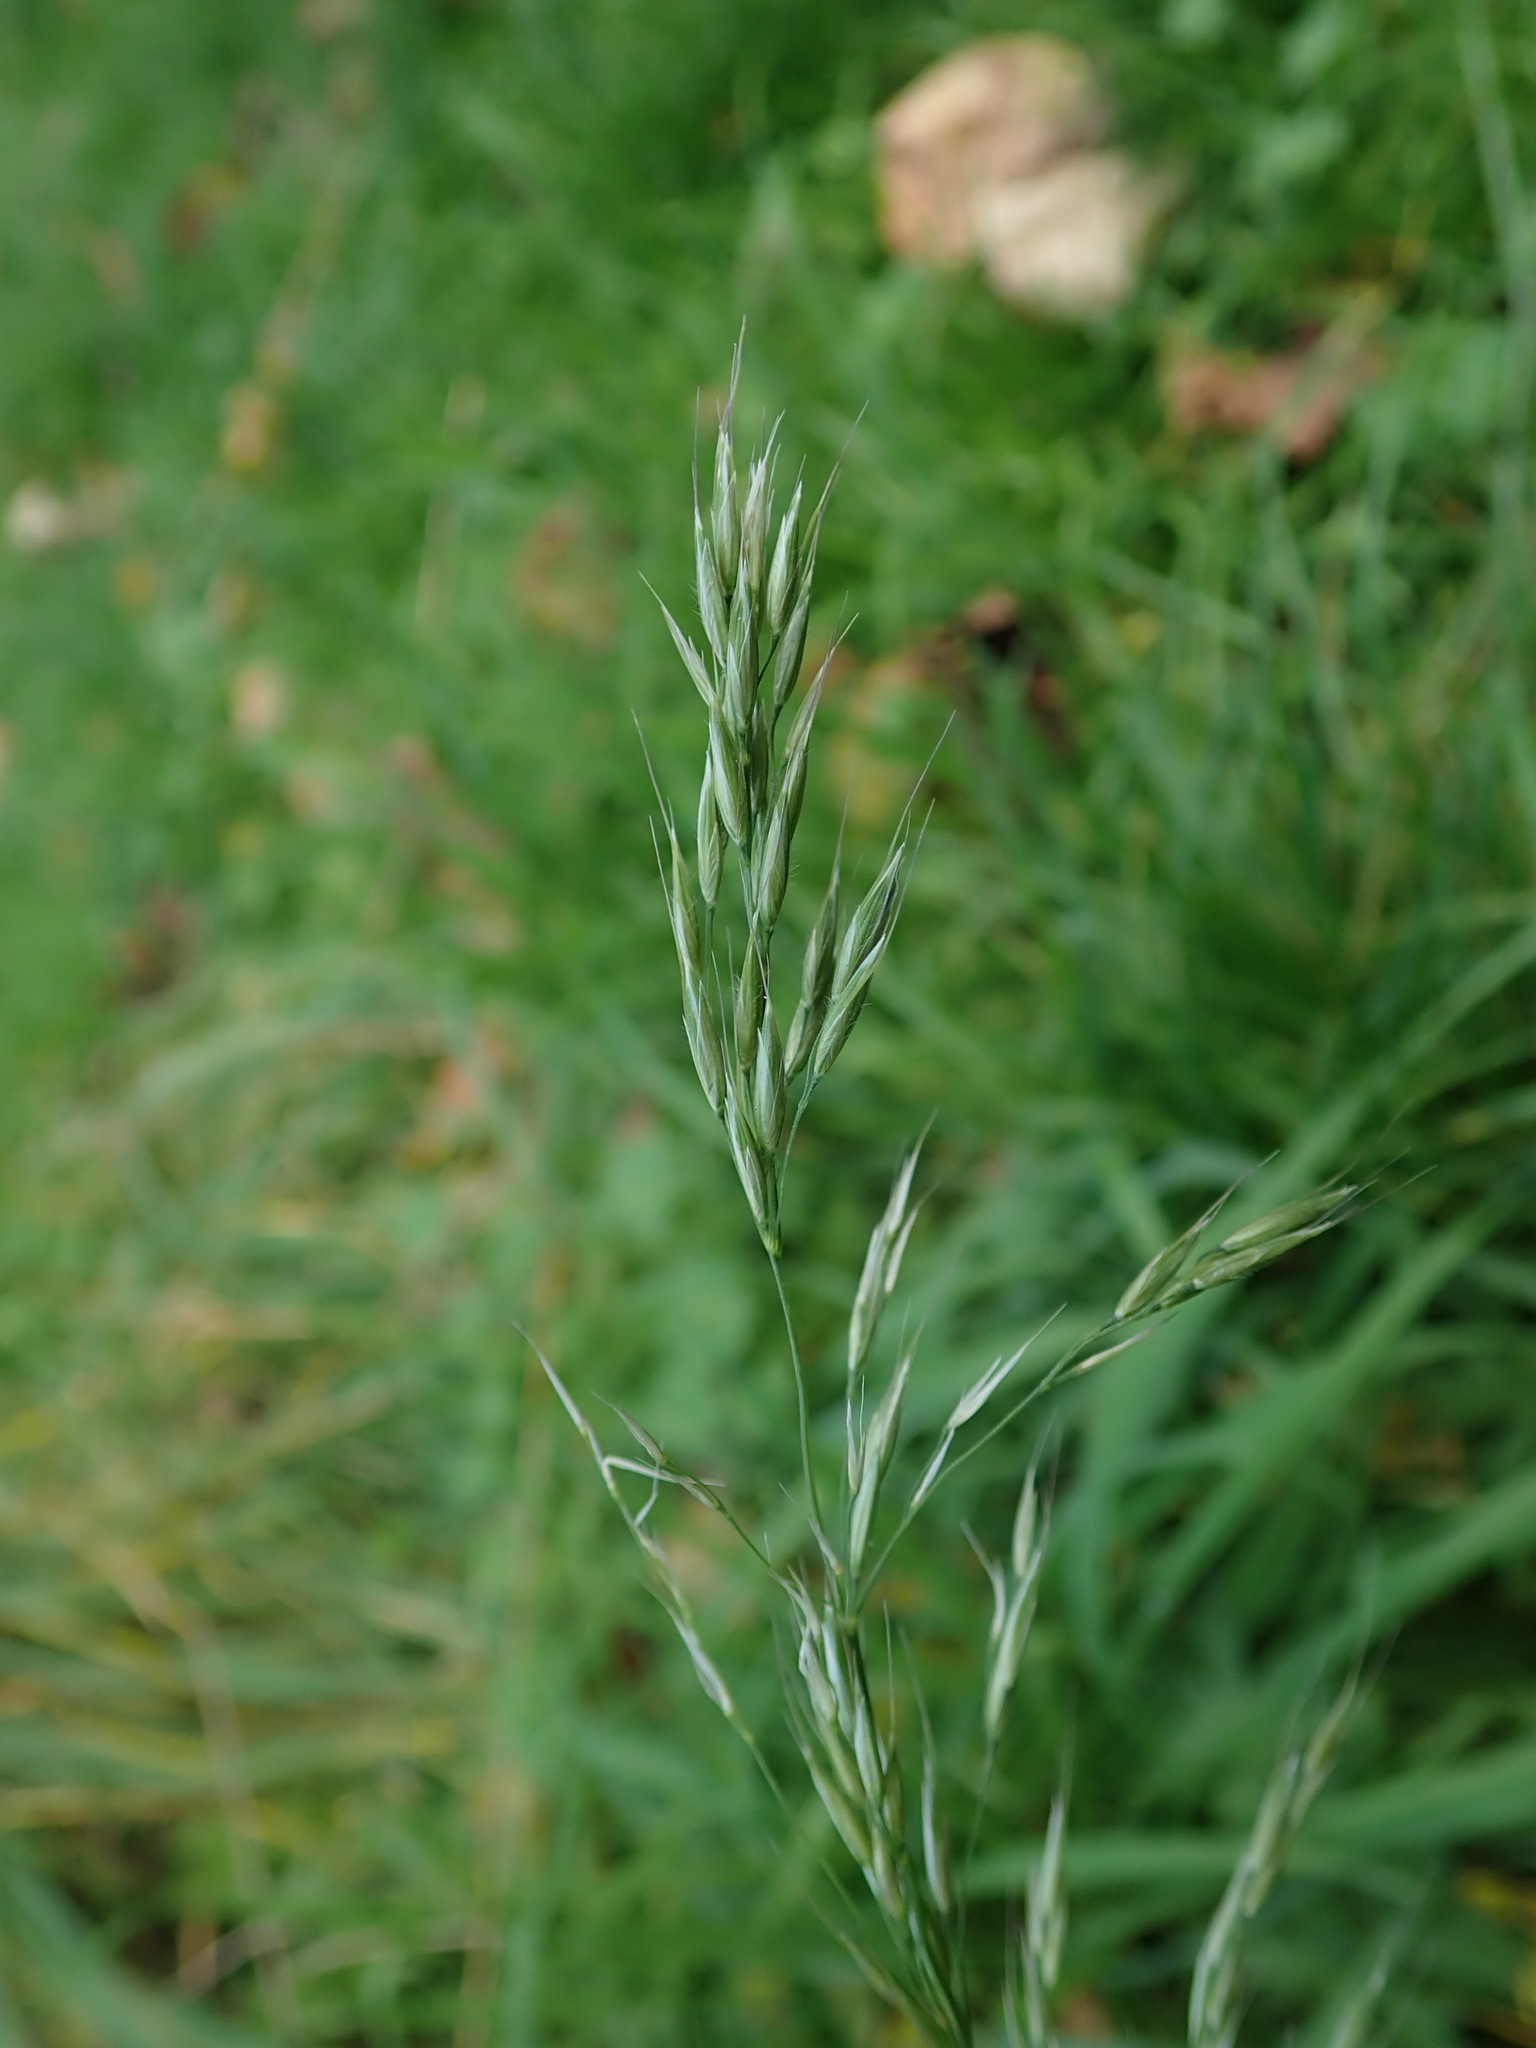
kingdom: Plantae
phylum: Tracheophyta
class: Liliopsida
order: Poales
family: Poaceae
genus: Arrhenatherum
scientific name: Arrhenatherum elatius
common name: Tall oatgrass
